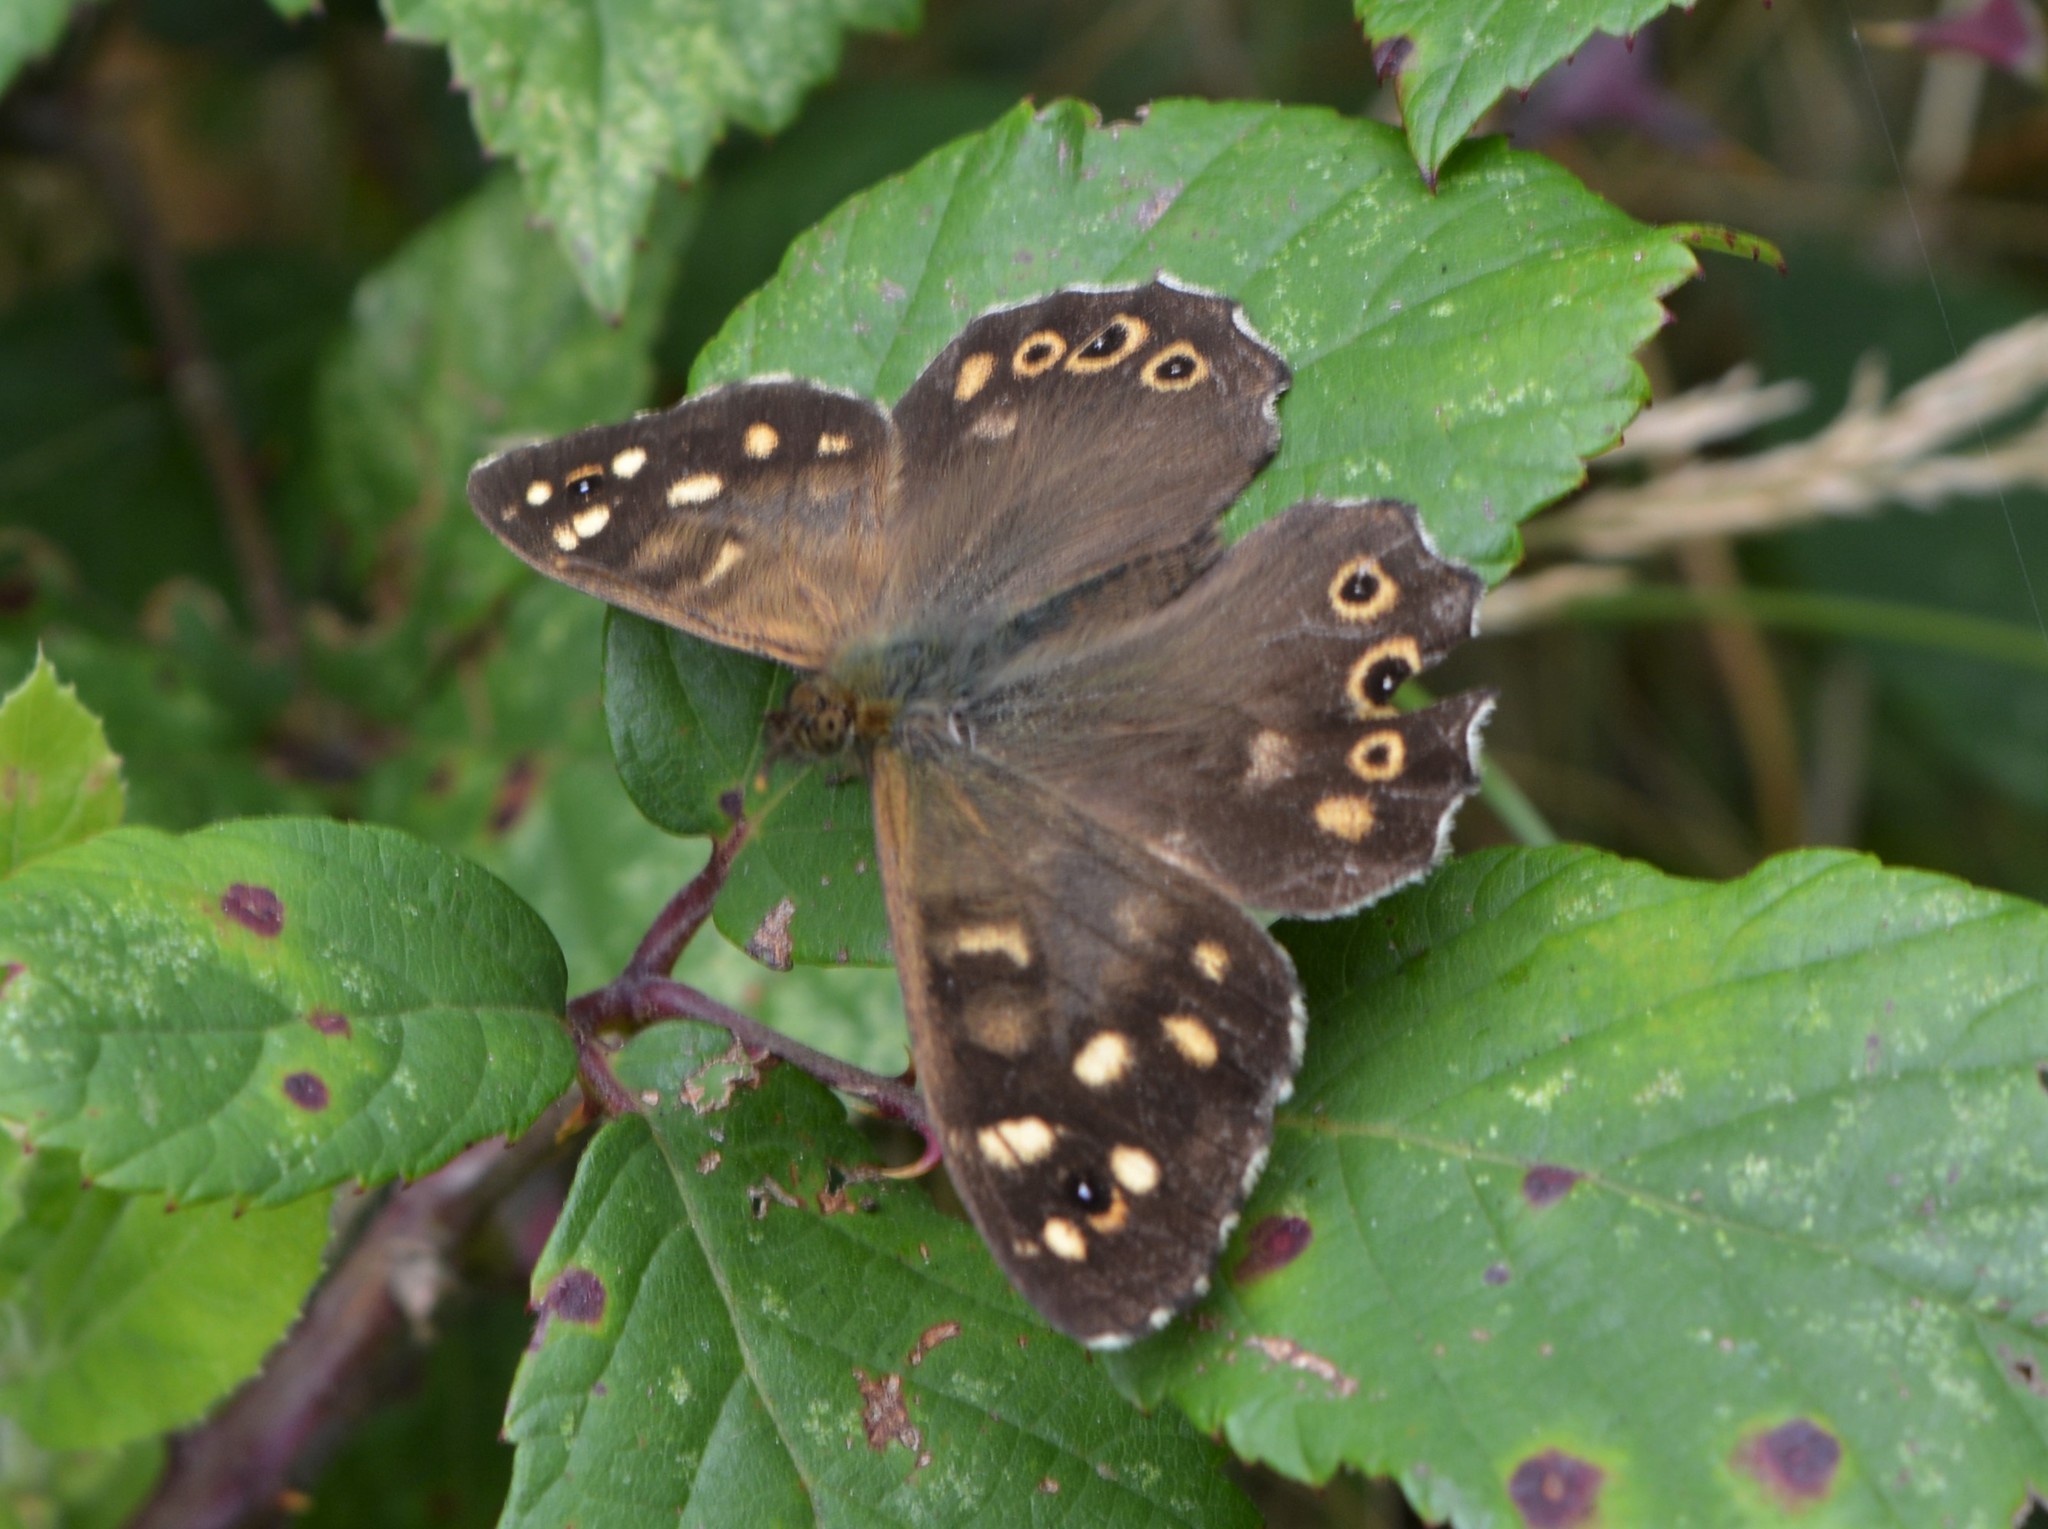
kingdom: Animalia
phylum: Arthropoda
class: Insecta
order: Lepidoptera
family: Nymphalidae
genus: Pararge
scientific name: Pararge aegeria
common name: Speckled wood
